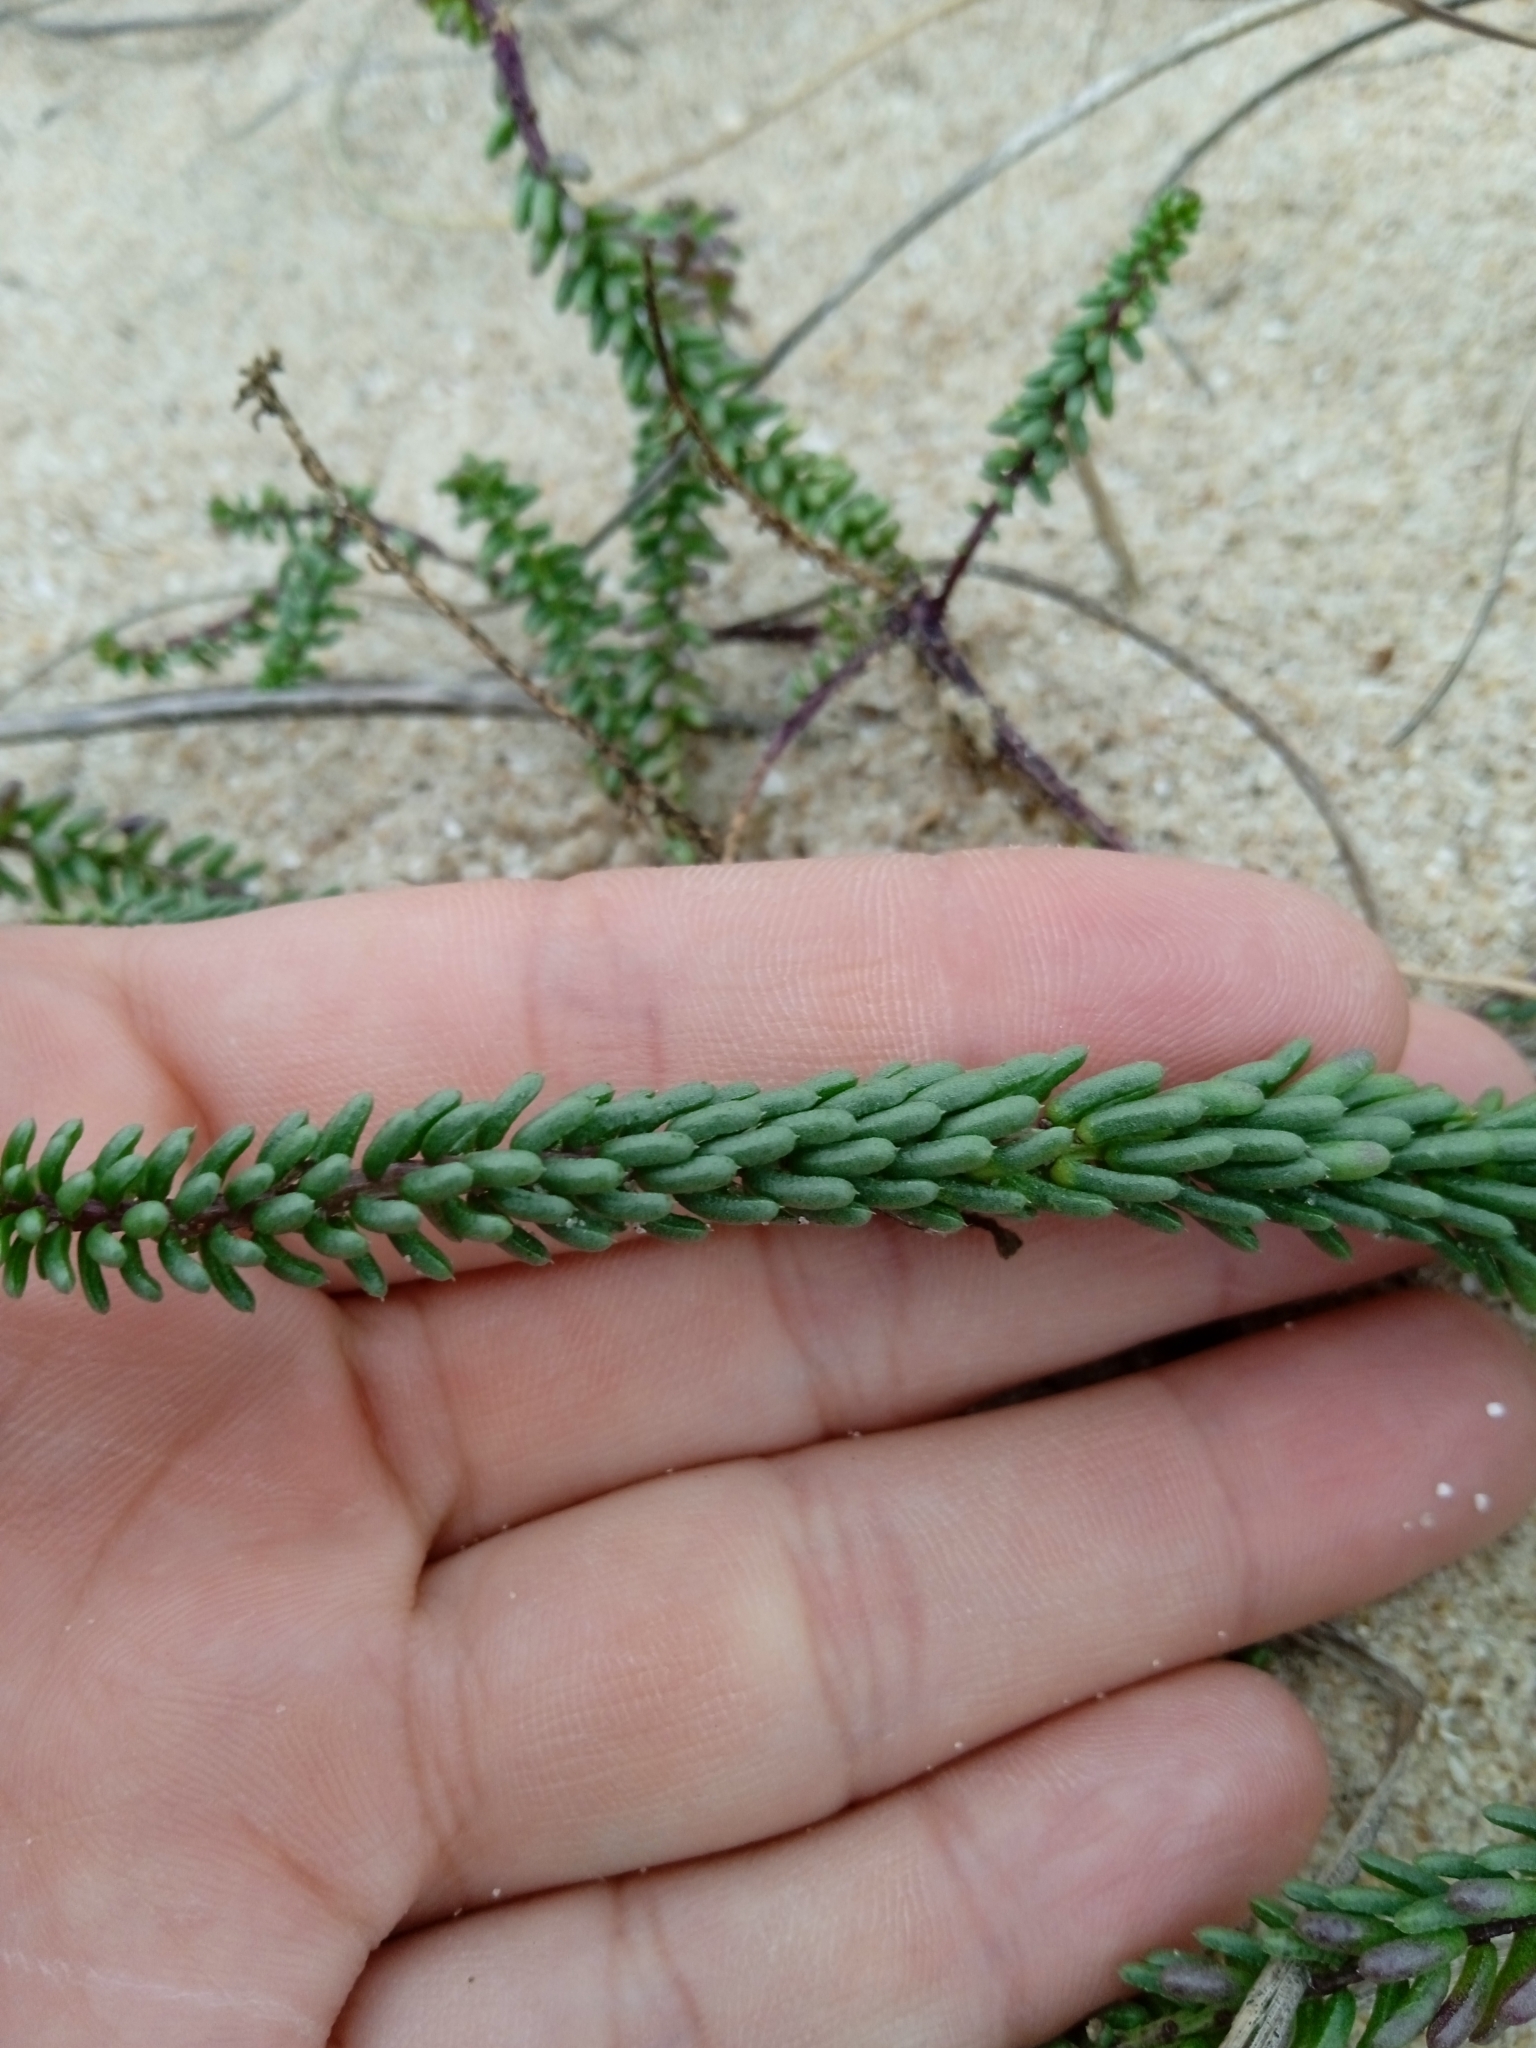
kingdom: Plantae
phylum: Tracheophyta
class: Magnoliopsida
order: Fabales
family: Polygalaceae
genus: Polygala
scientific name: Polygala cyparissias
